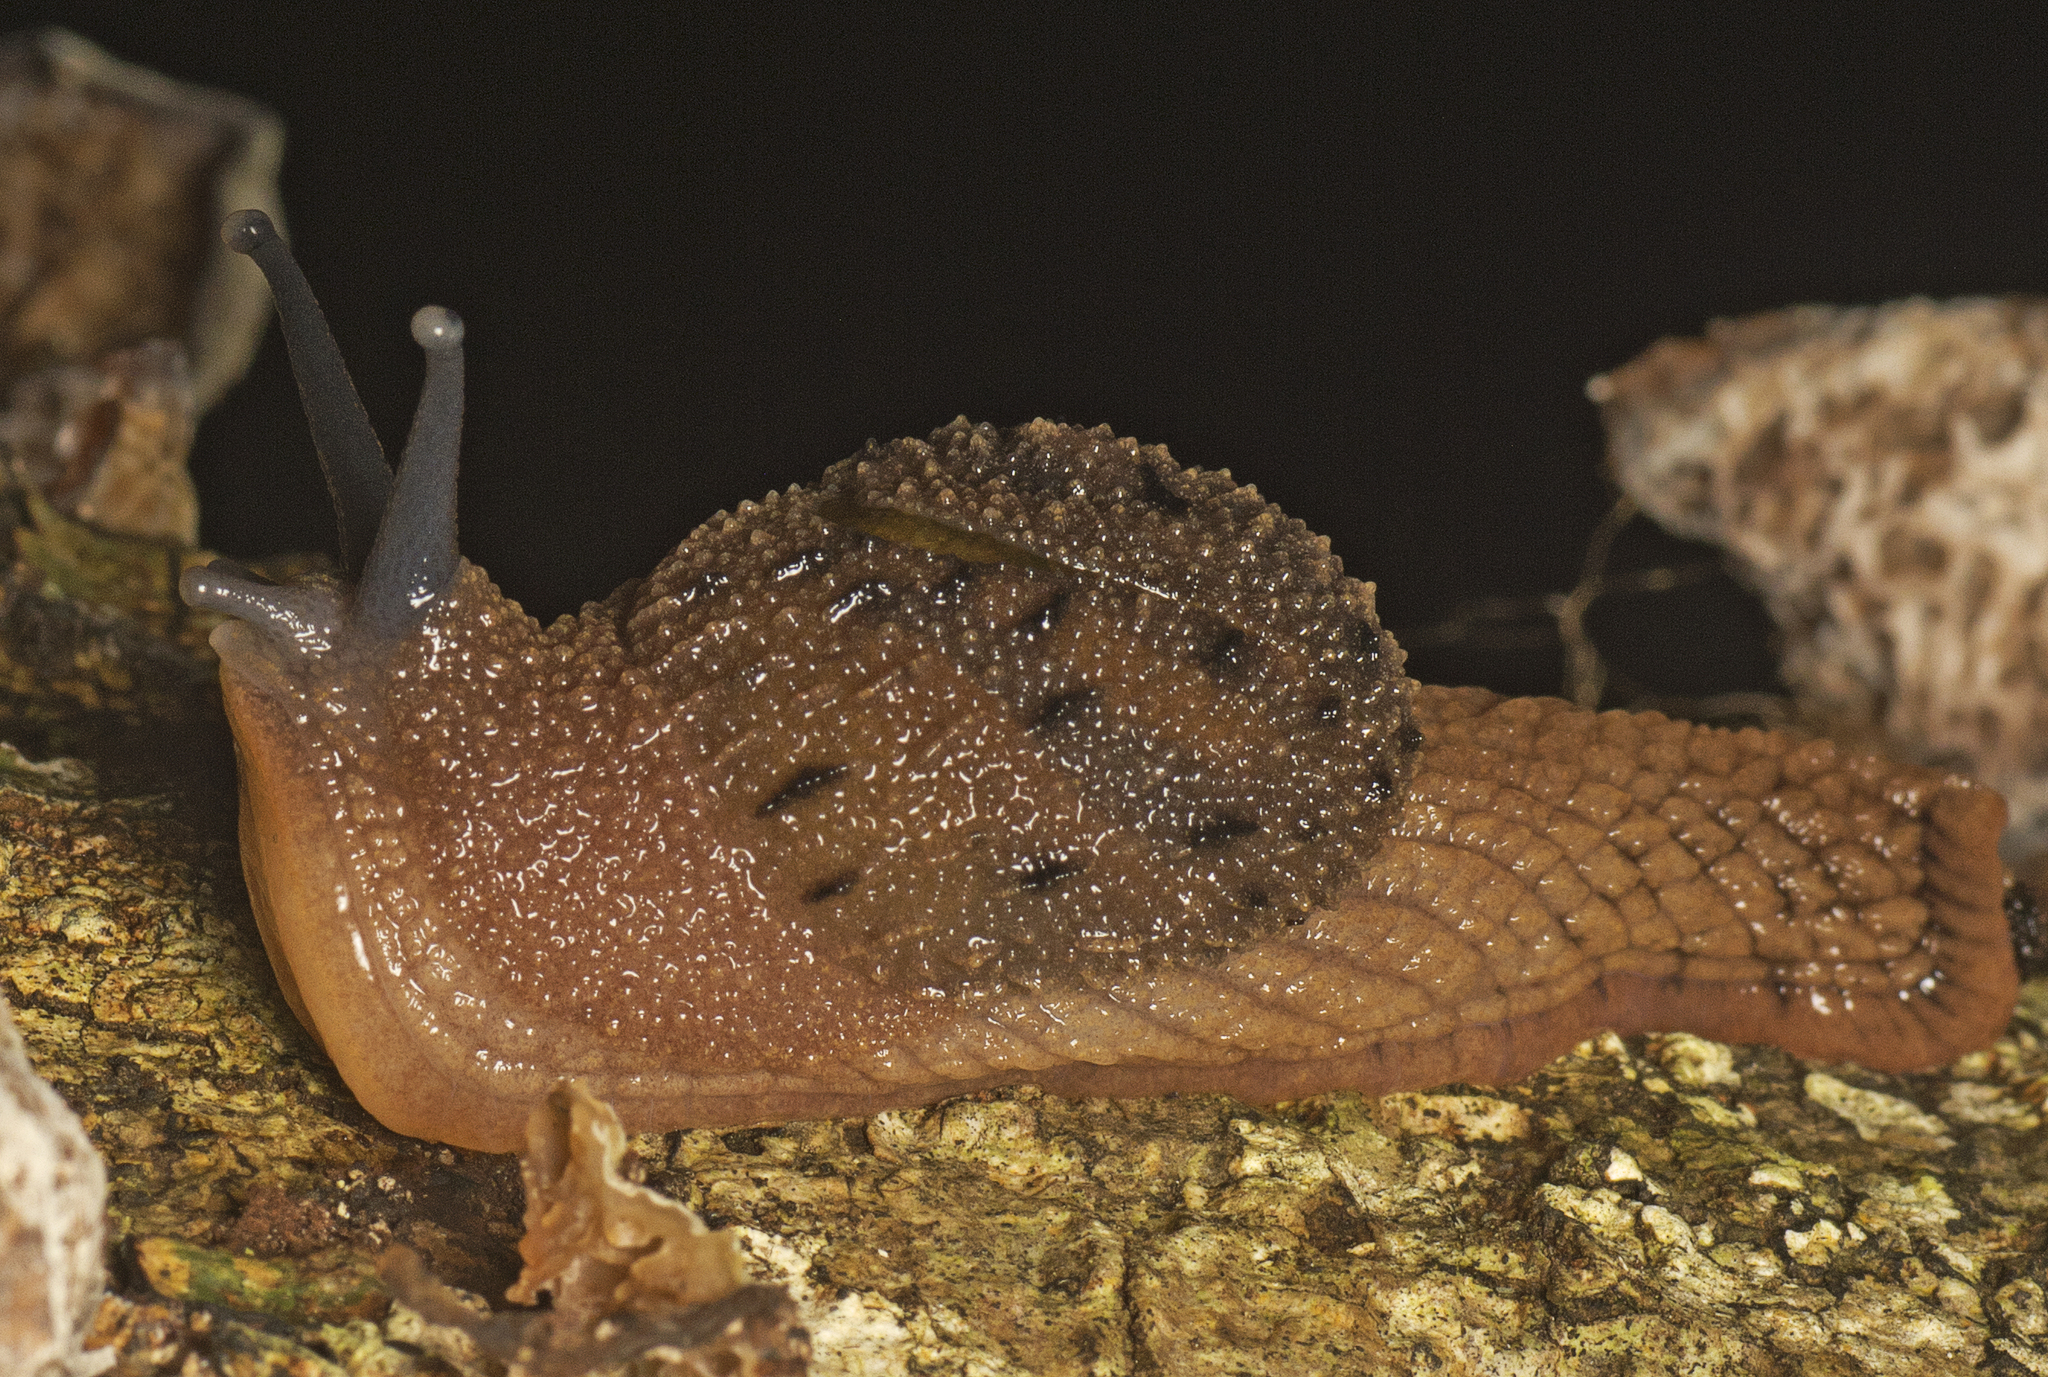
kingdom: Animalia
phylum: Mollusca
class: Gastropoda
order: Stylommatophora
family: Helicarionidae
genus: Stanisicarion
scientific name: Stanisicarion aquila
